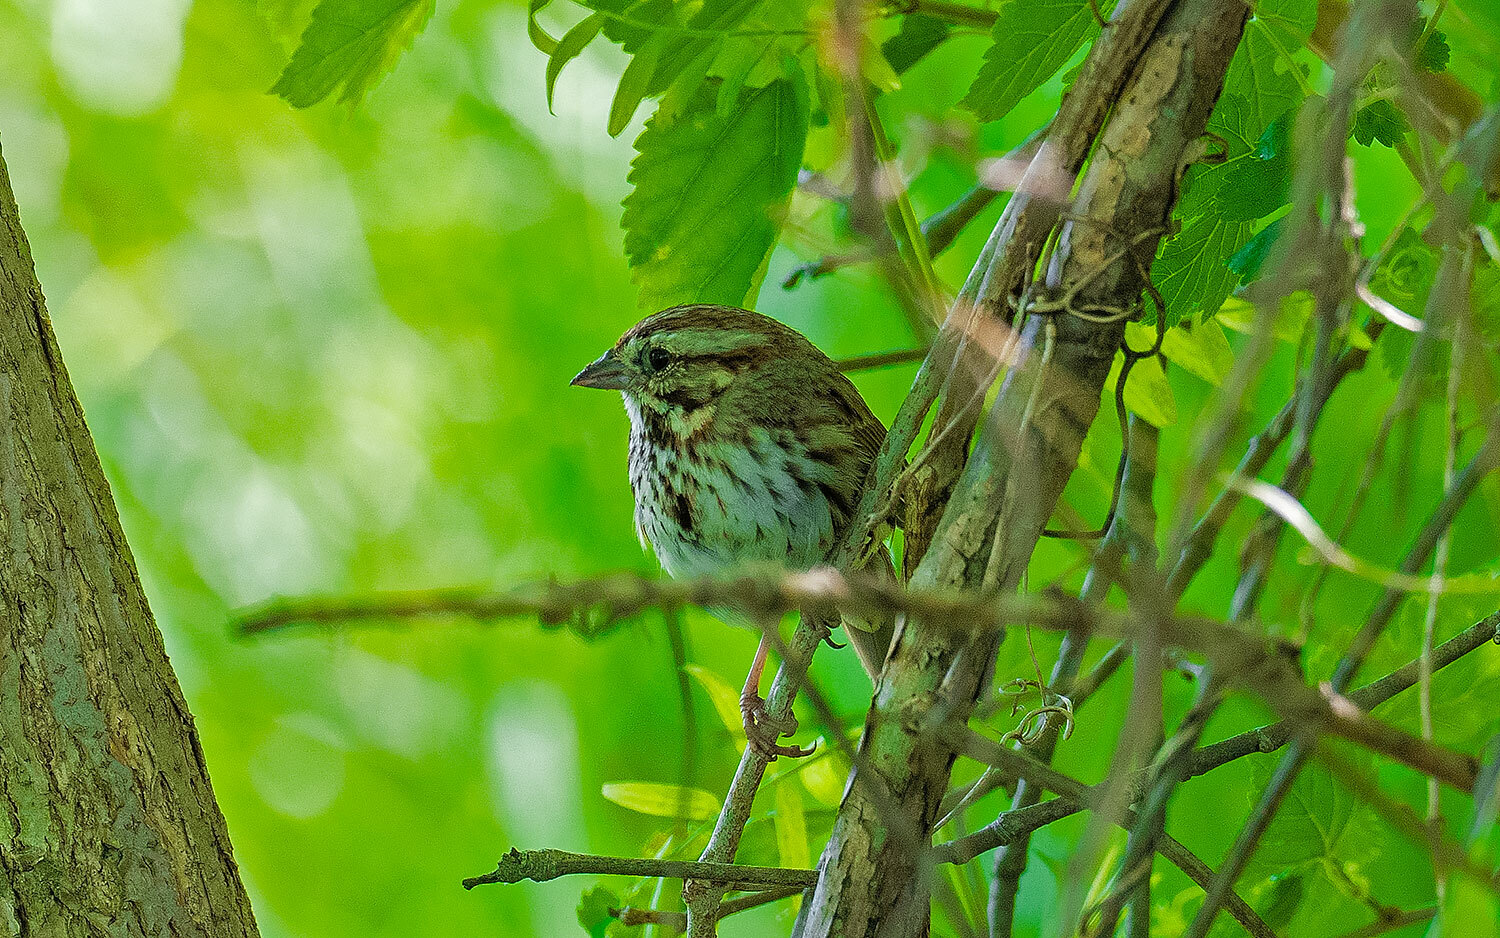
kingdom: Animalia
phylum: Chordata
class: Aves
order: Passeriformes
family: Passerellidae
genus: Melospiza
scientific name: Melospiza melodia
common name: Song sparrow
